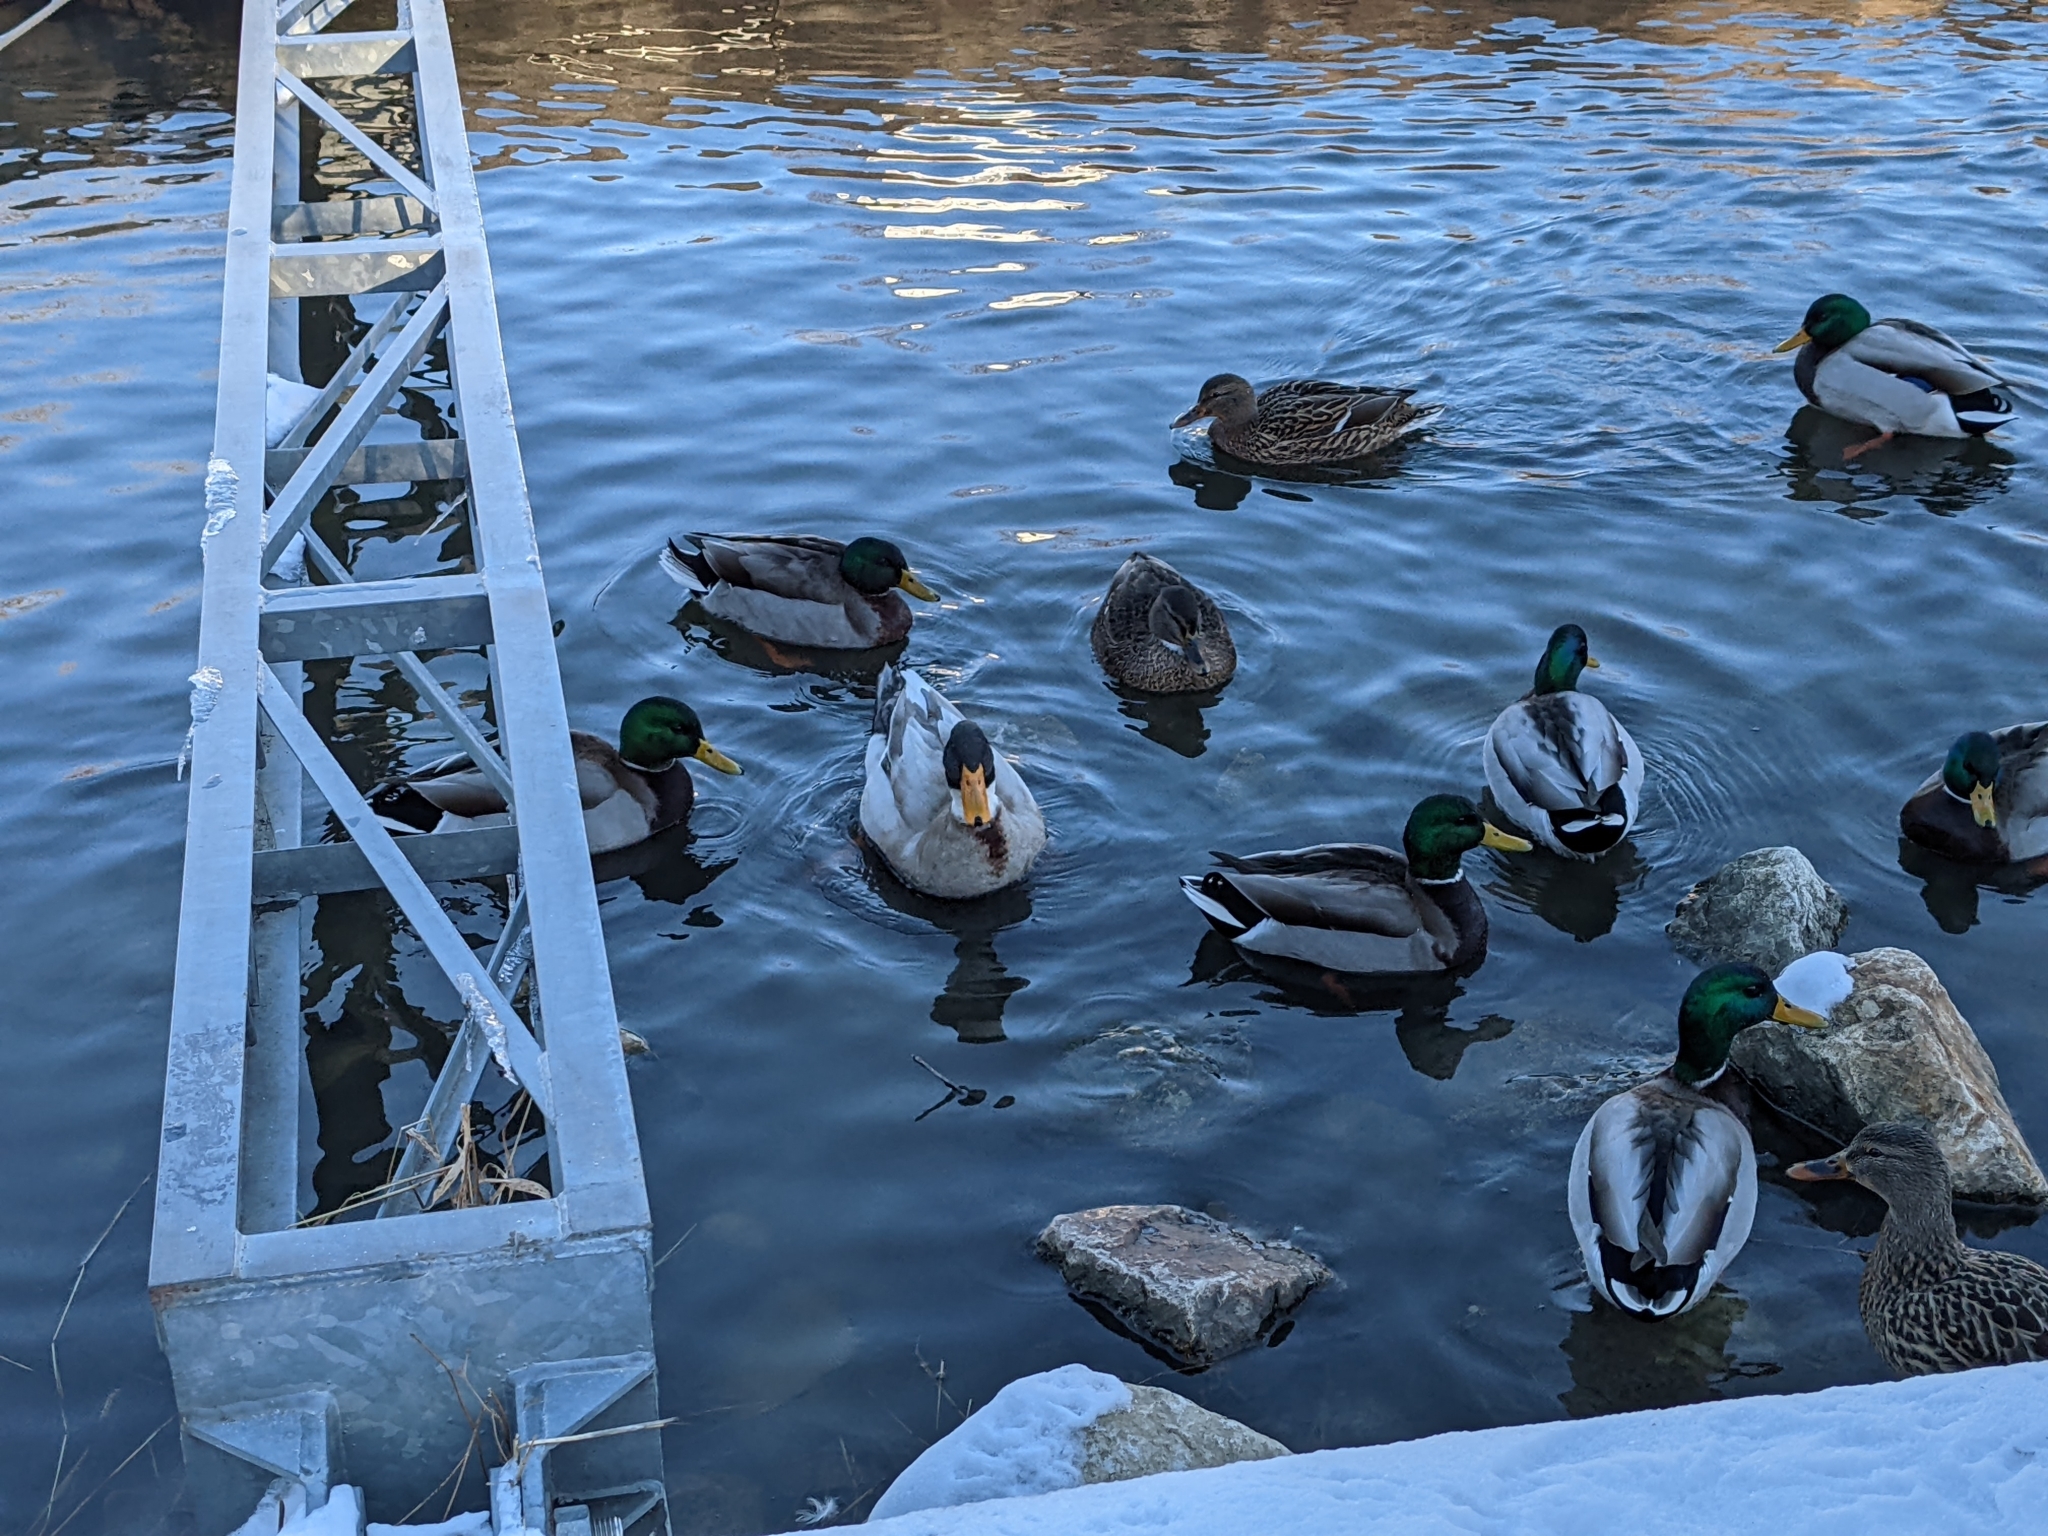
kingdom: Animalia
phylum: Chordata
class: Aves
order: Anseriformes
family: Anatidae
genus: Anas
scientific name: Anas platyrhynchos
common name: Mallard
